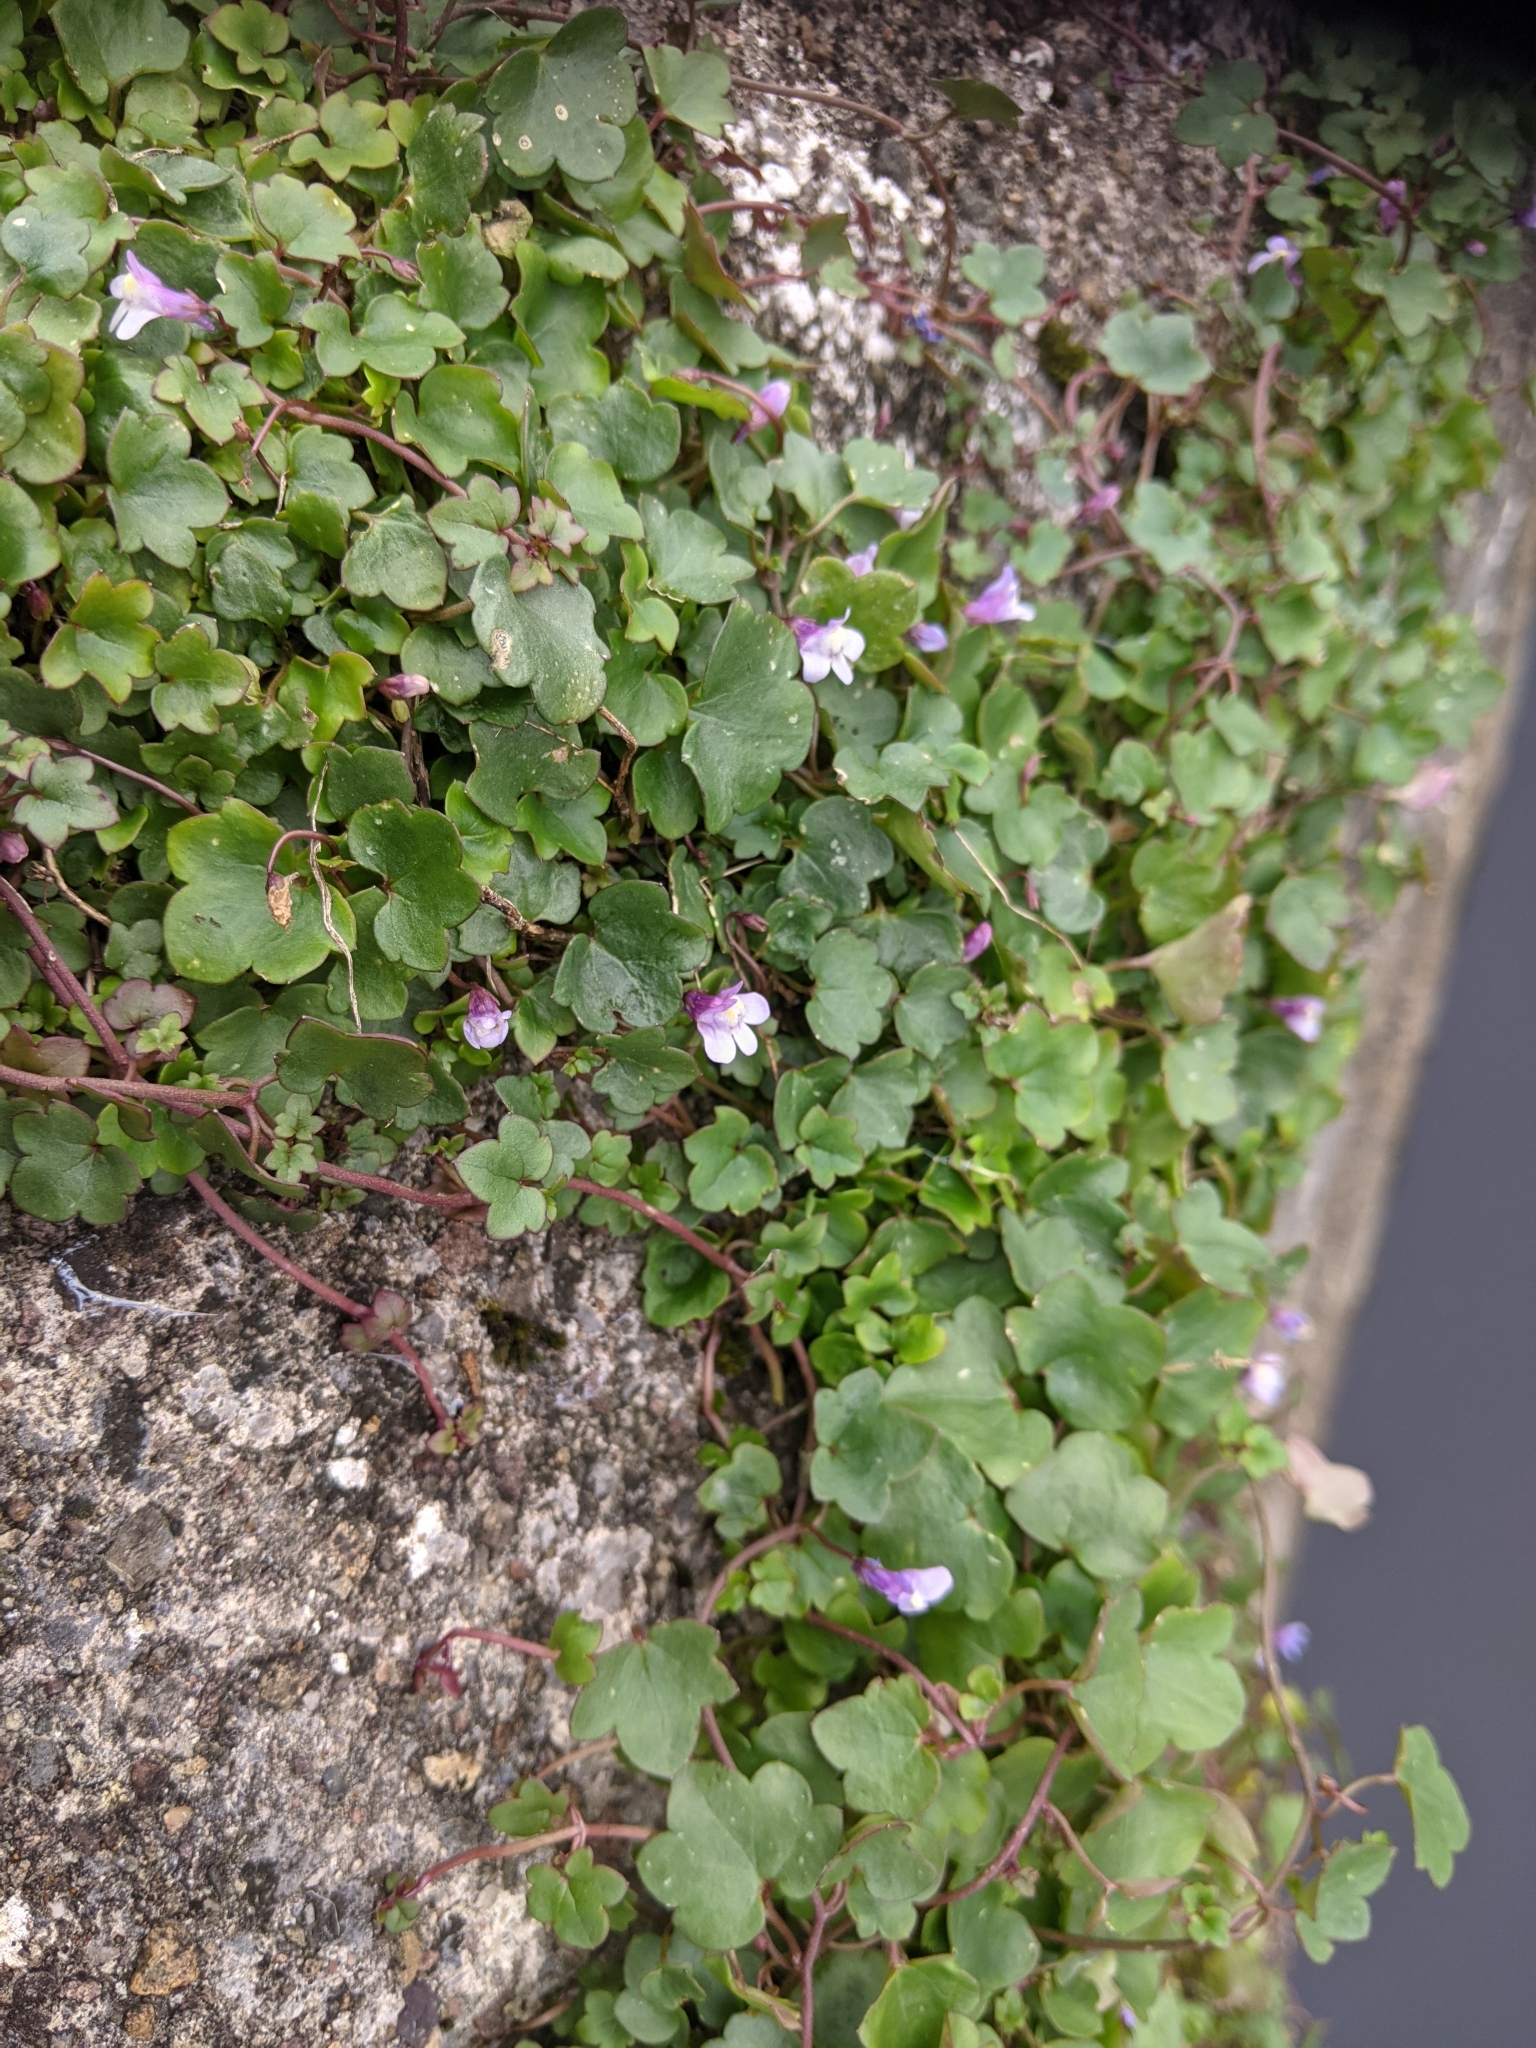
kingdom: Plantae
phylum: Tracheophyta
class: Magnoliopsida
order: Lamiales
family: Plantaginaceae
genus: Cymbalaria
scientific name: Cymbalaria muralis
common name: Ivy-leaved toadflax
